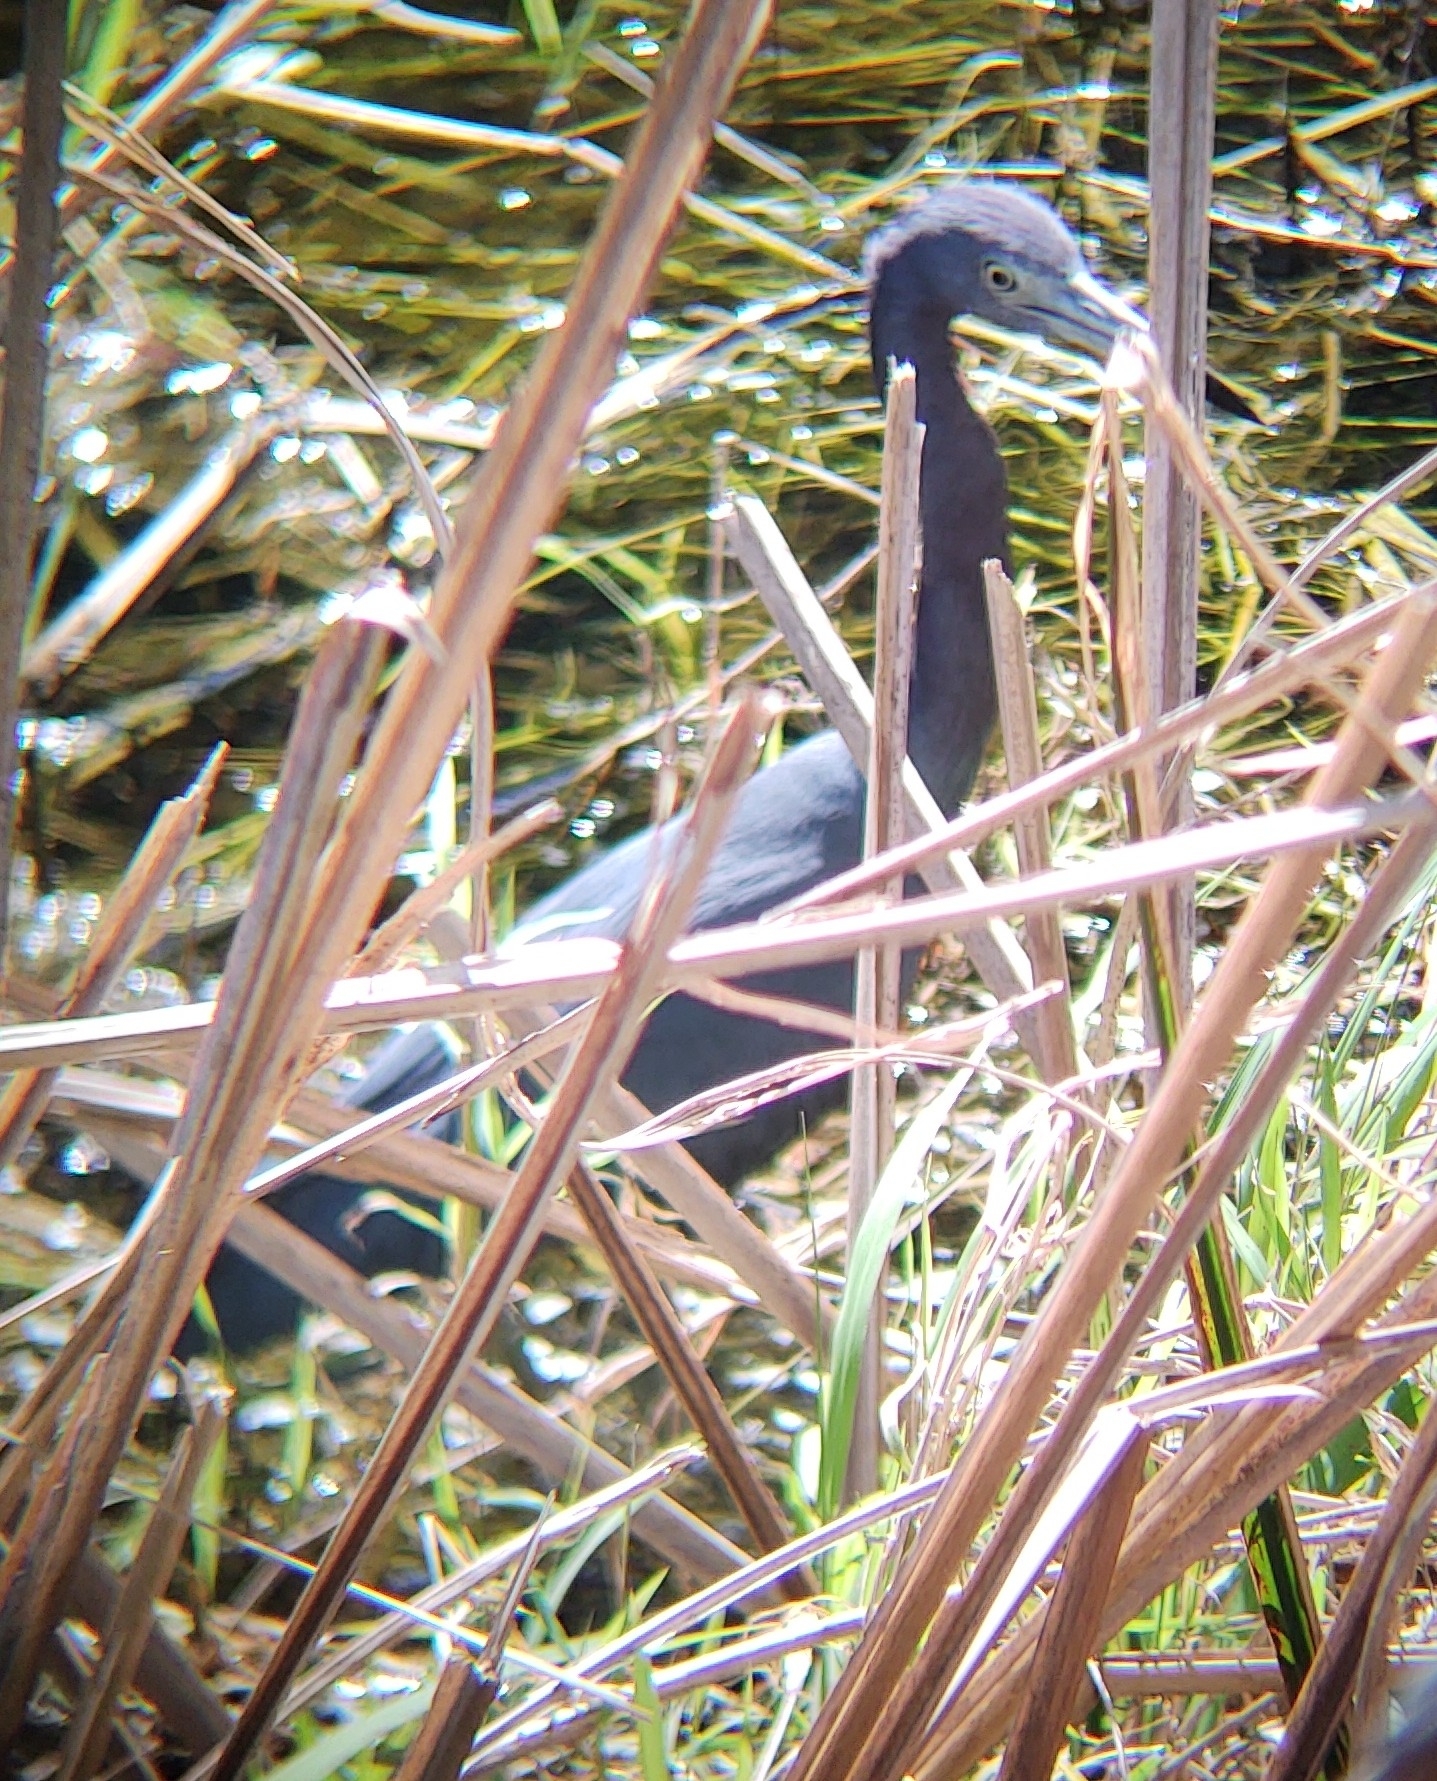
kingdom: Animalia
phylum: Chordata
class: Aves
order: Pelecaniformes
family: Ardeidae
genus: Egretta
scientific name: Egretta caerulea
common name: Little blue heron
